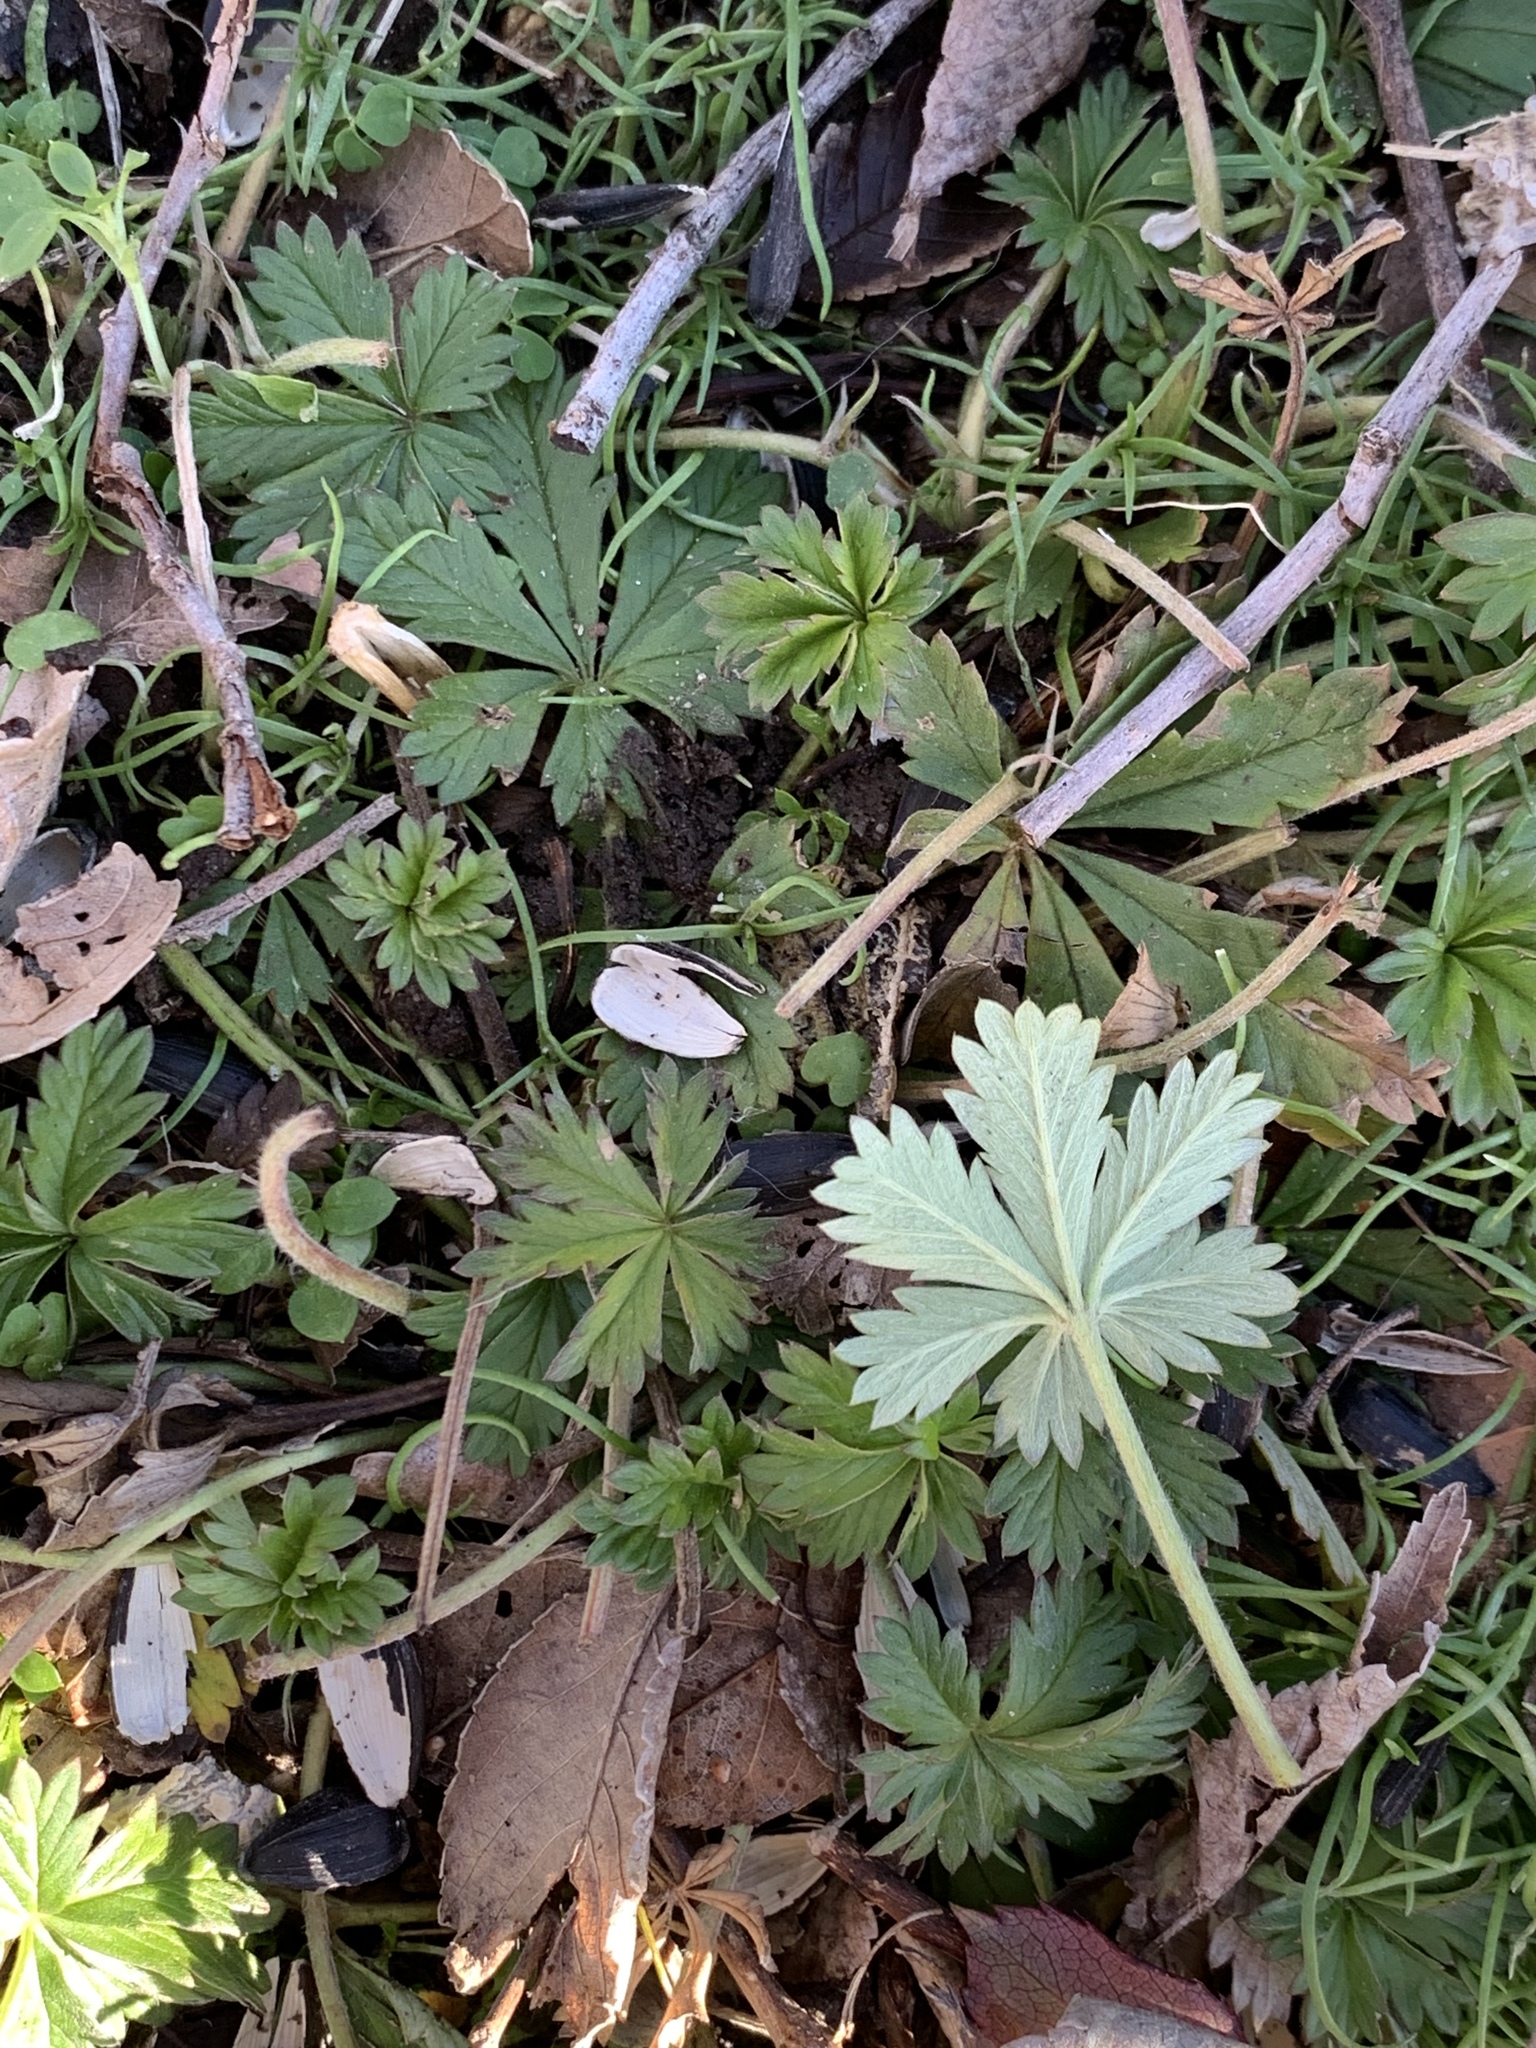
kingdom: Plantae
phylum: Tracheophyta
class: Magnoliopsida
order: Rosales
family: Rosaceae
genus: Potentilla
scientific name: Potentilla argentea
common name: Hoary cinquefoil
